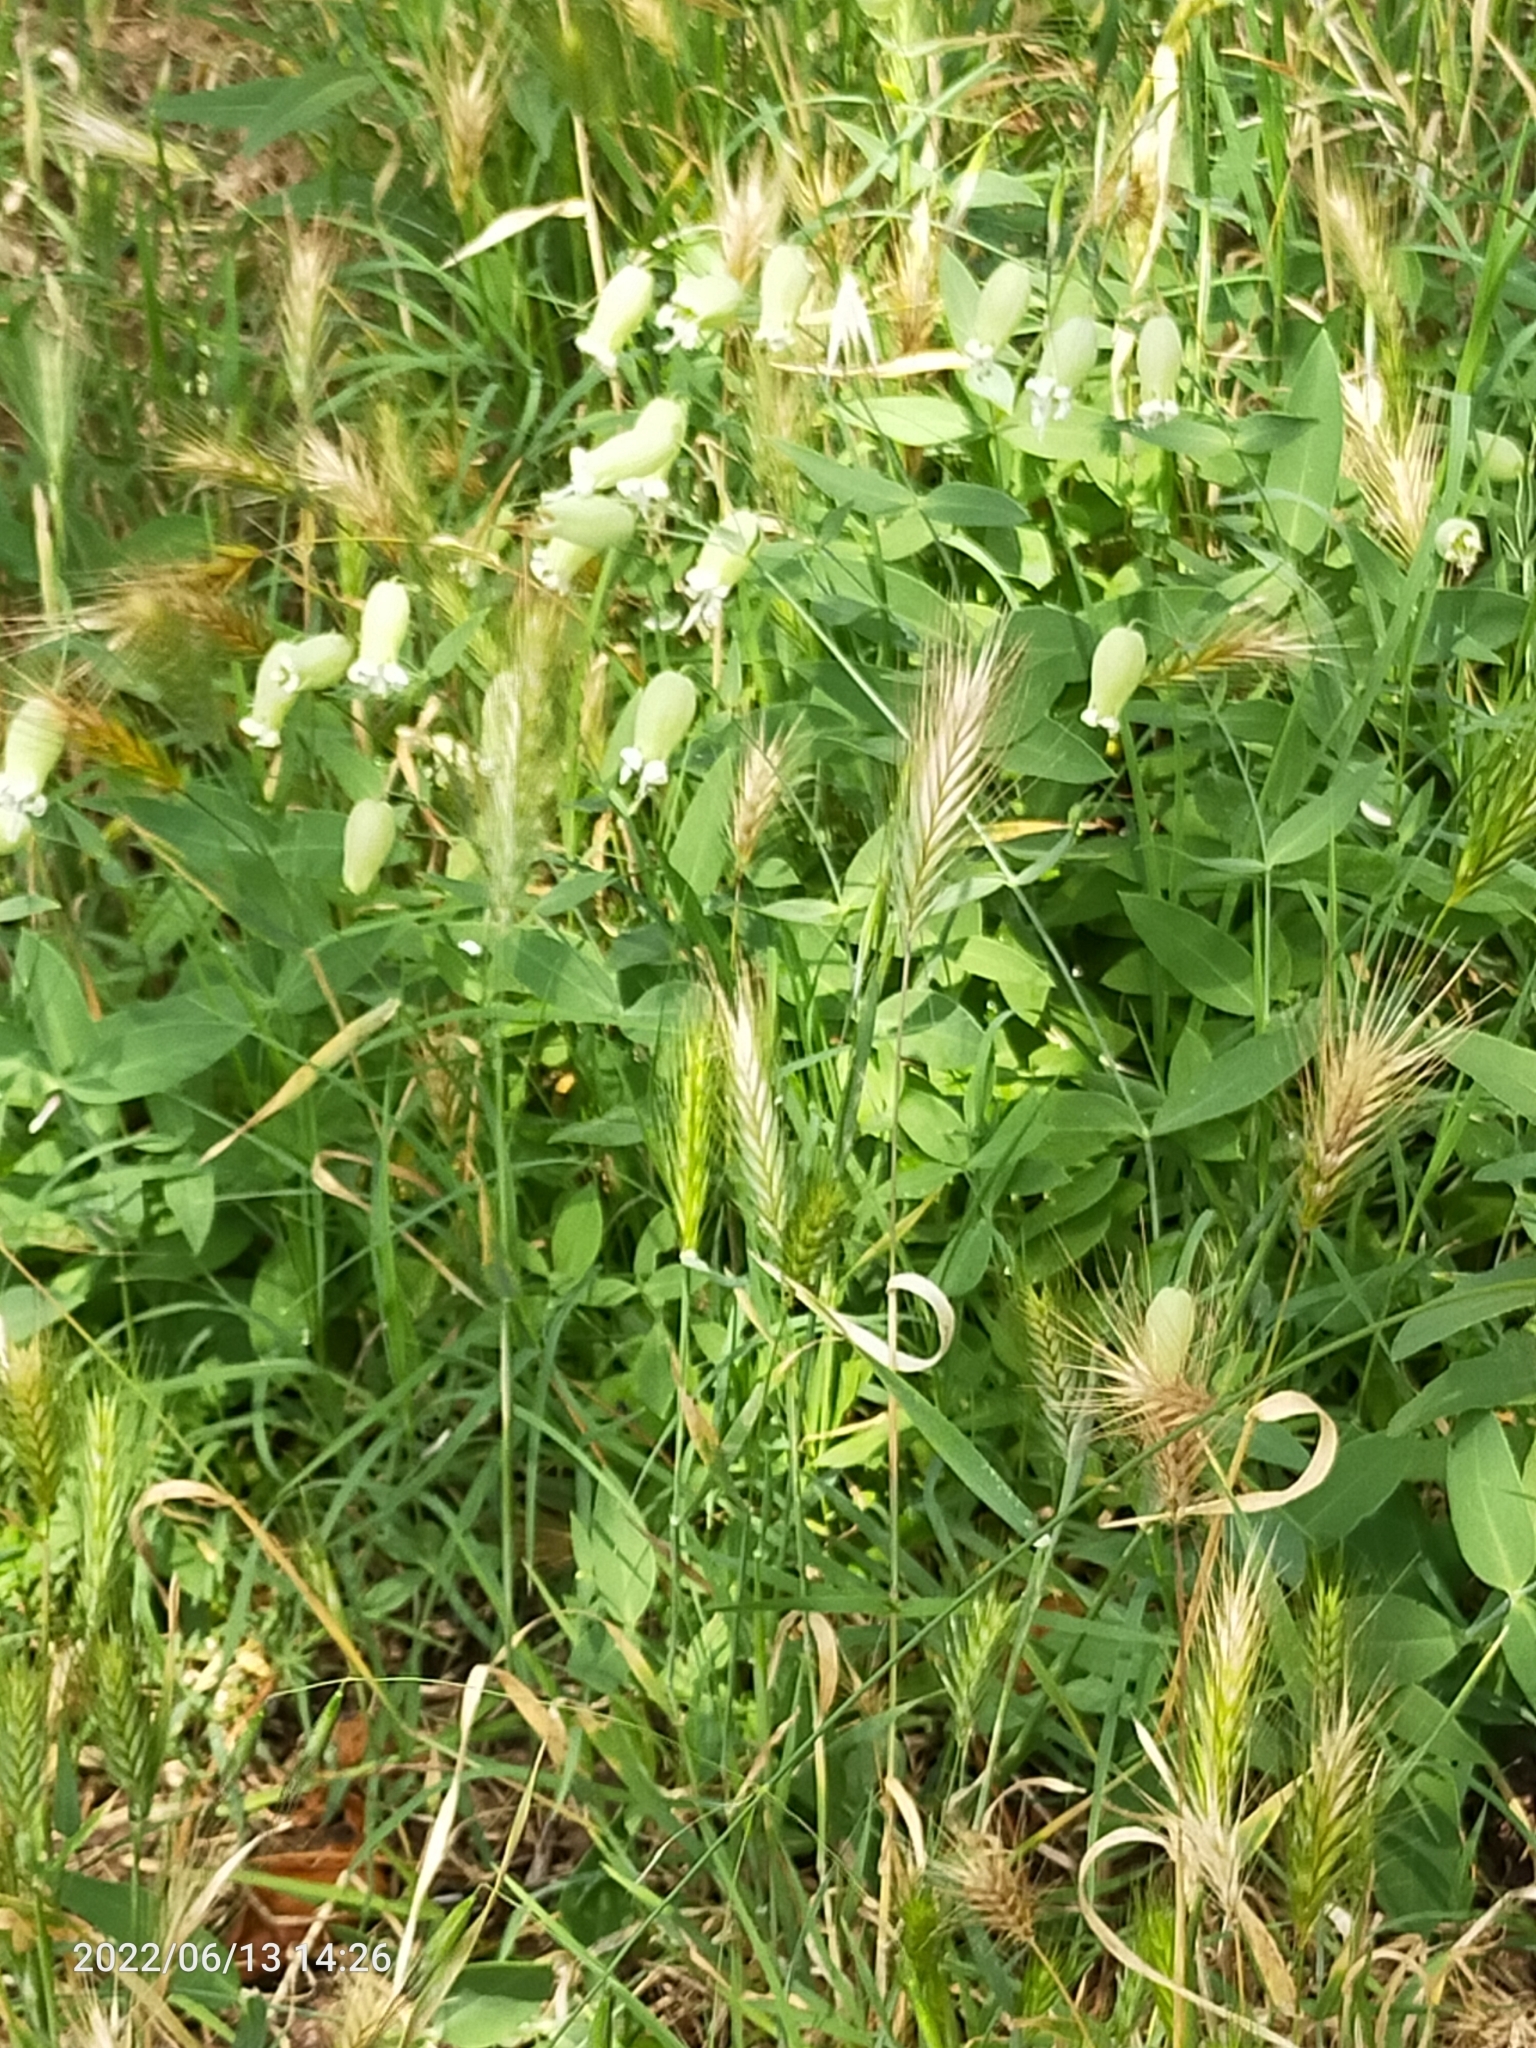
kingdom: Plantae
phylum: Tracheophyta
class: Magnoliopsida
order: Caryophyllales
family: Caryophyllaceae
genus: Silene
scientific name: Silene vulgaris
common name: Bladder campion
